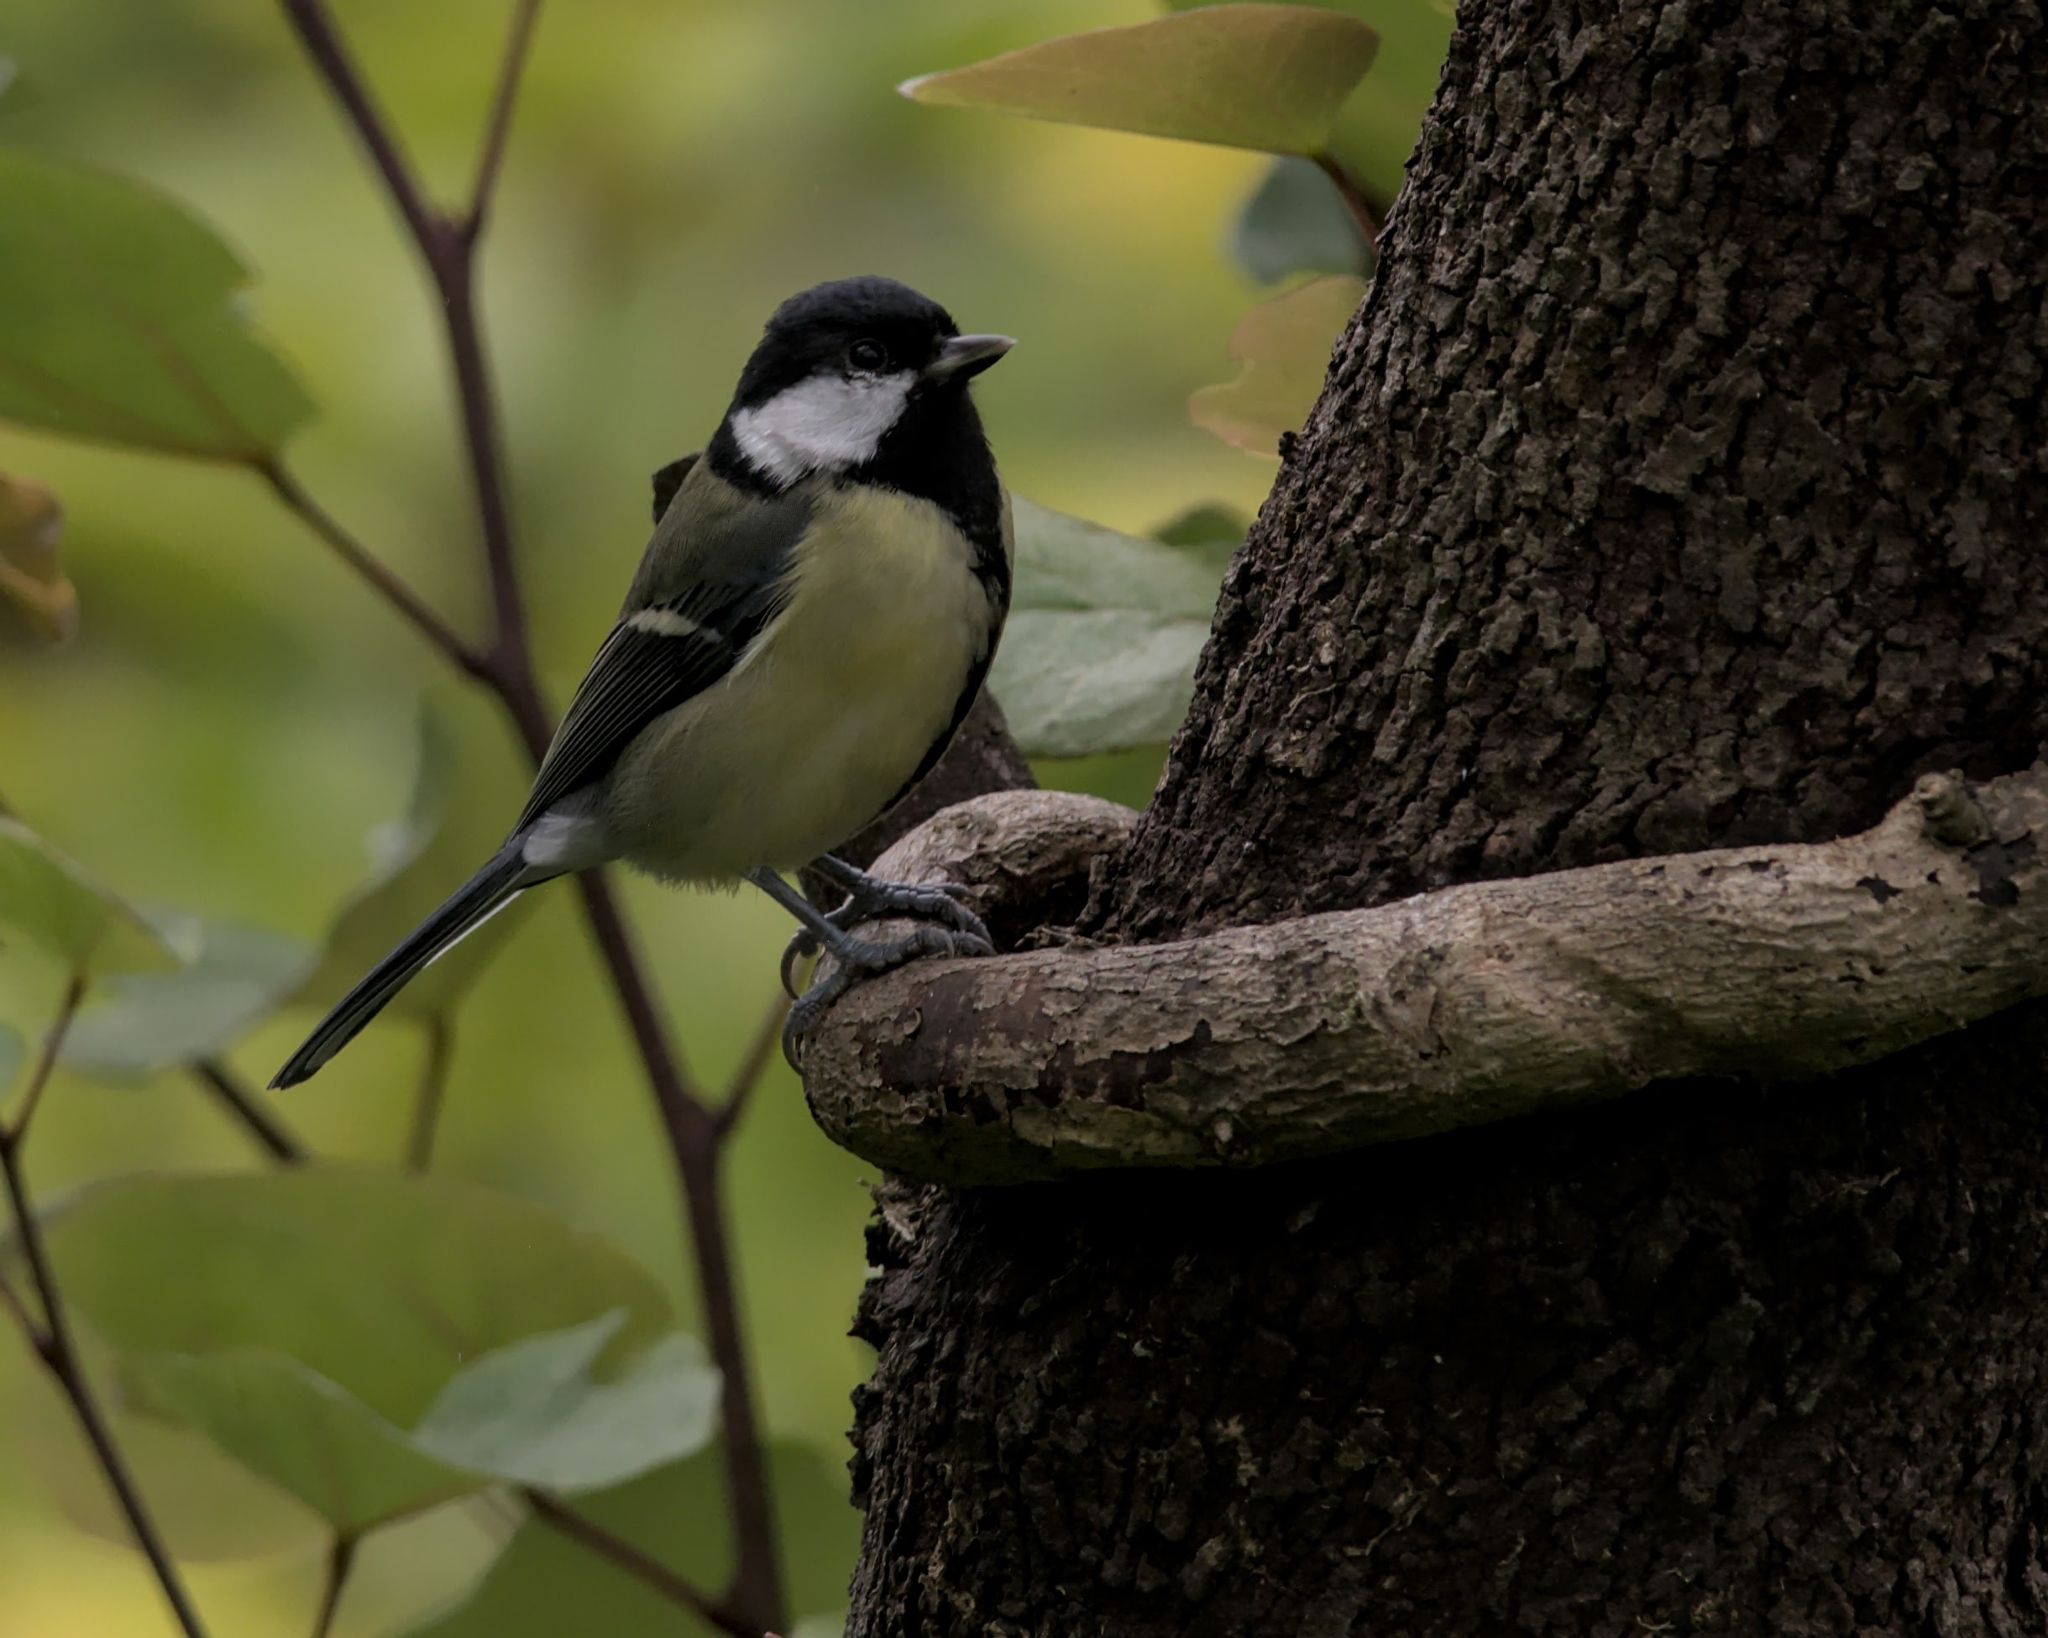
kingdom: Animalia
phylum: Chordata
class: Aves
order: Passeriformes
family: Paridae
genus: Parus
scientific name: Parus major
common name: Great tit
